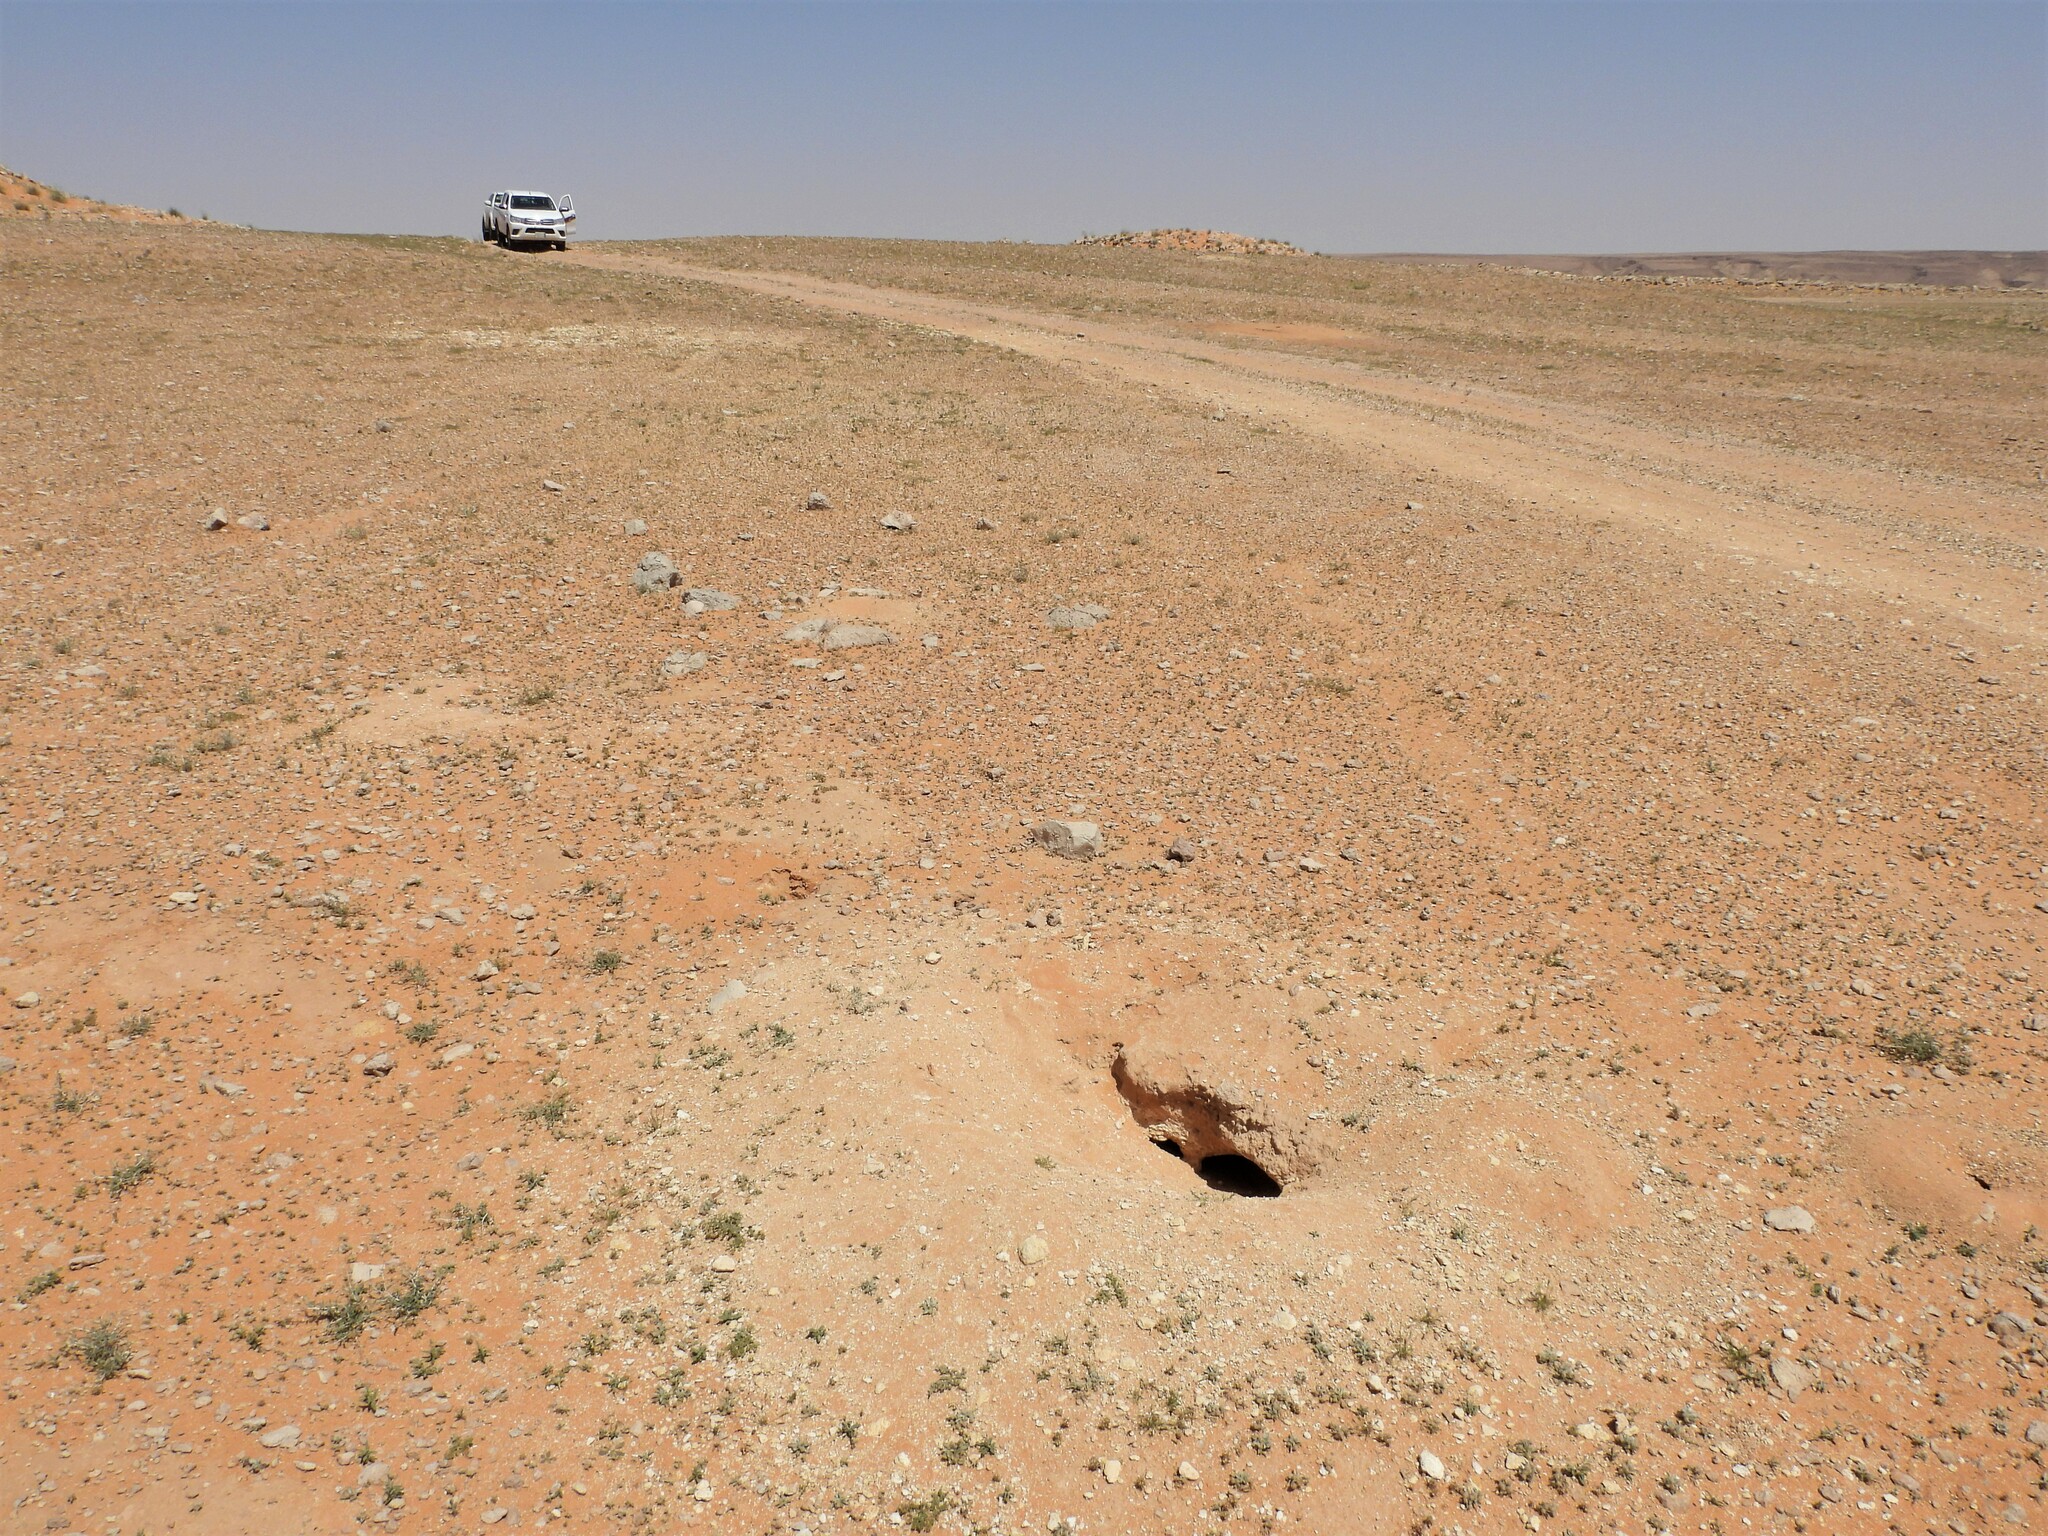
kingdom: Animalia
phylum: Chordata
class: Squamata
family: Agamidae
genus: Uromastyx
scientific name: Uromastyx aegyptia
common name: Egyptian mastigure
